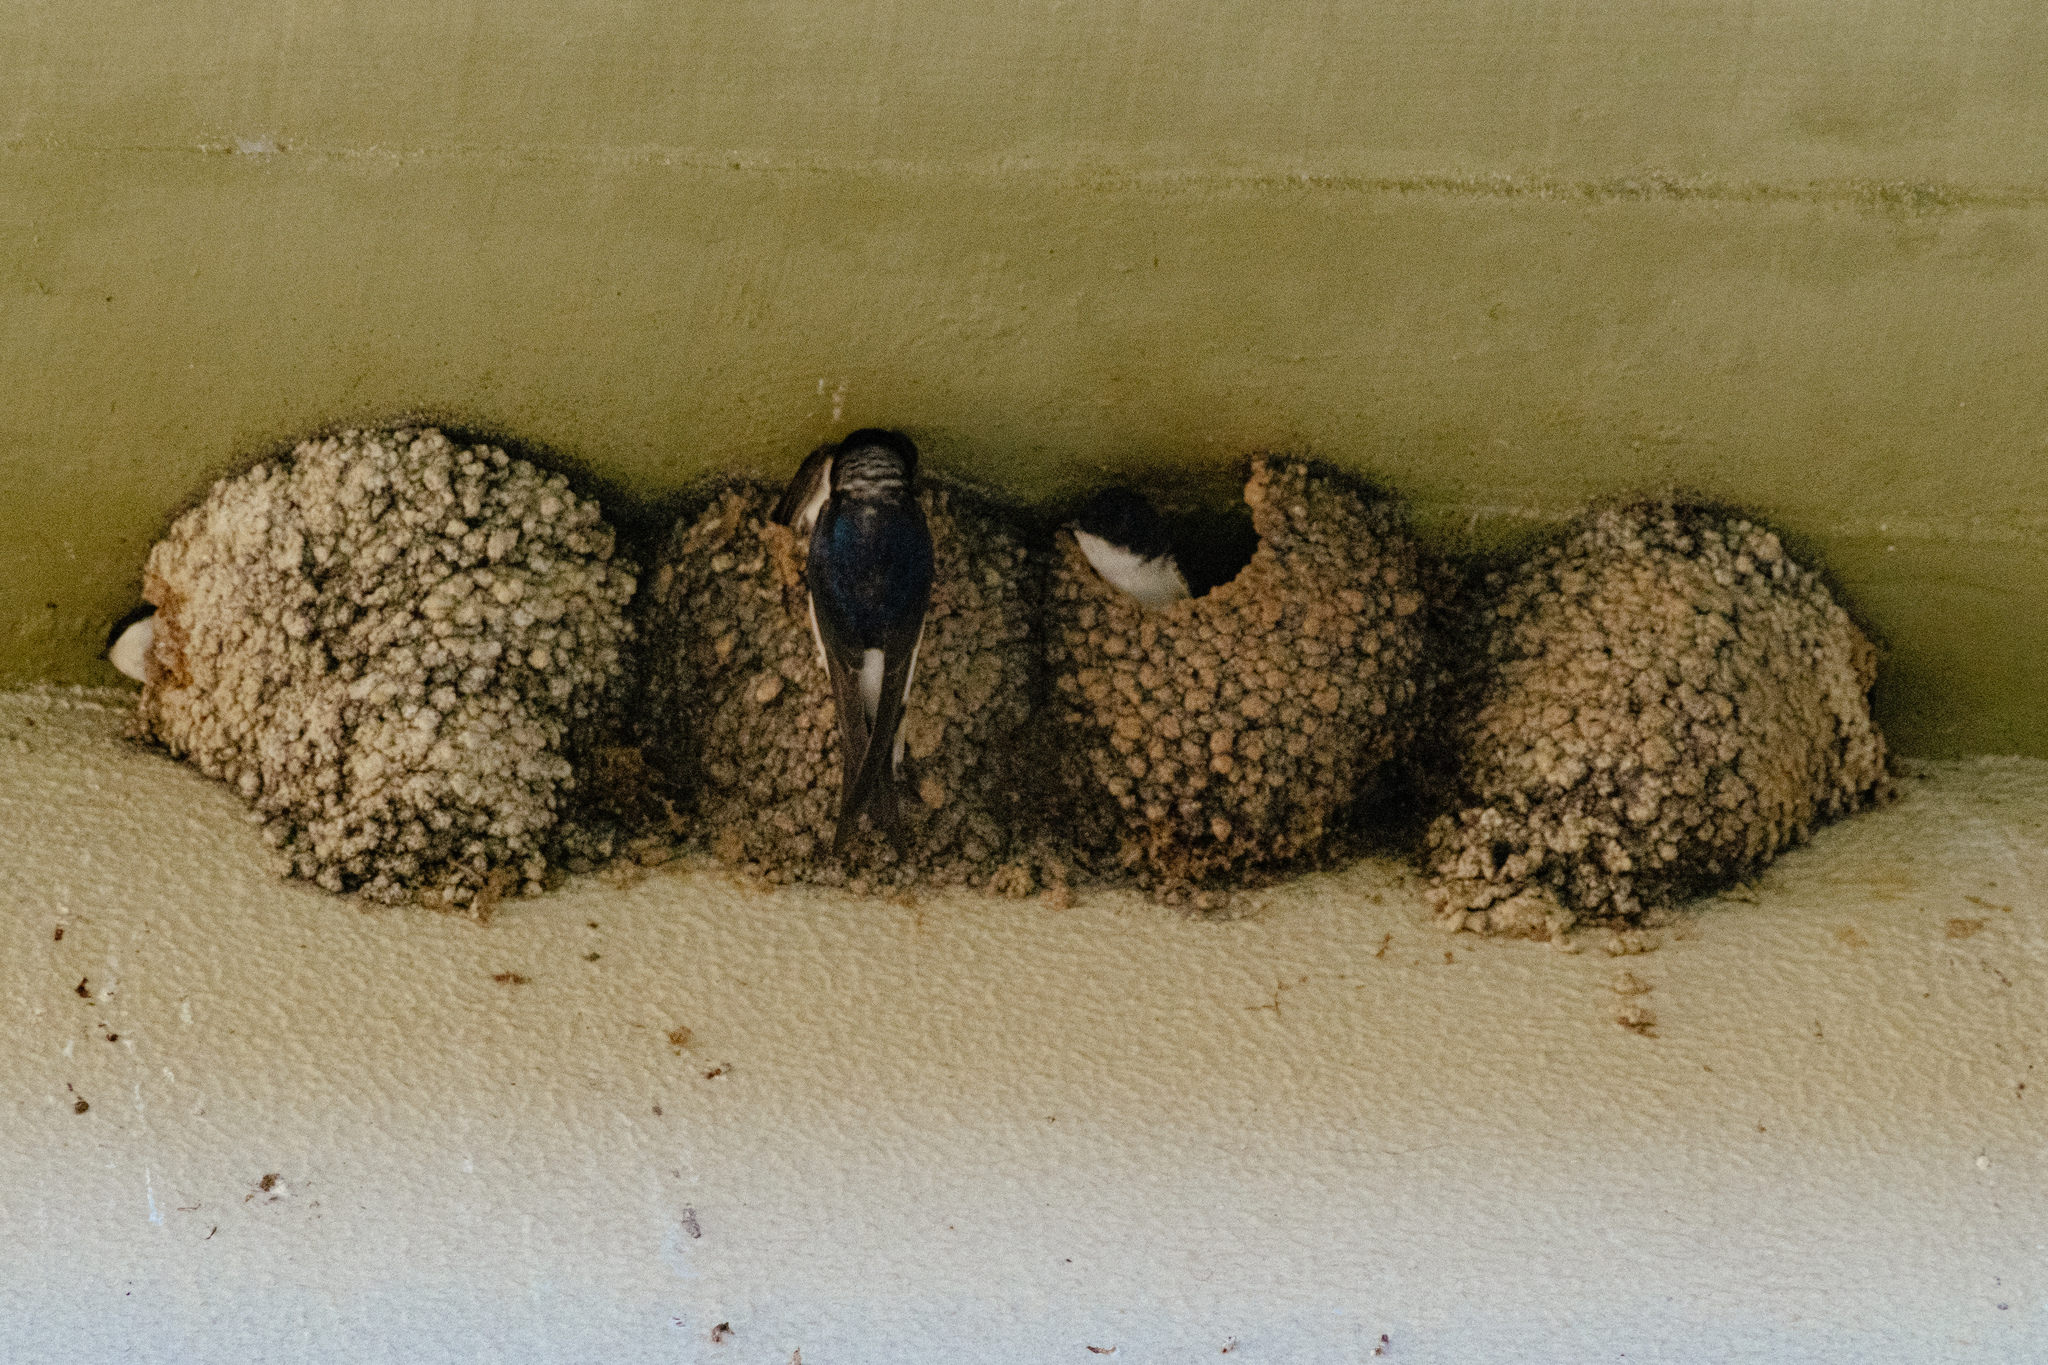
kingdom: Animalia
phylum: Chordata
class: Aves
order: Passeriformes
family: Hirundinidae
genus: Delichon
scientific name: Delichon urbicum
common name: Common house martin
